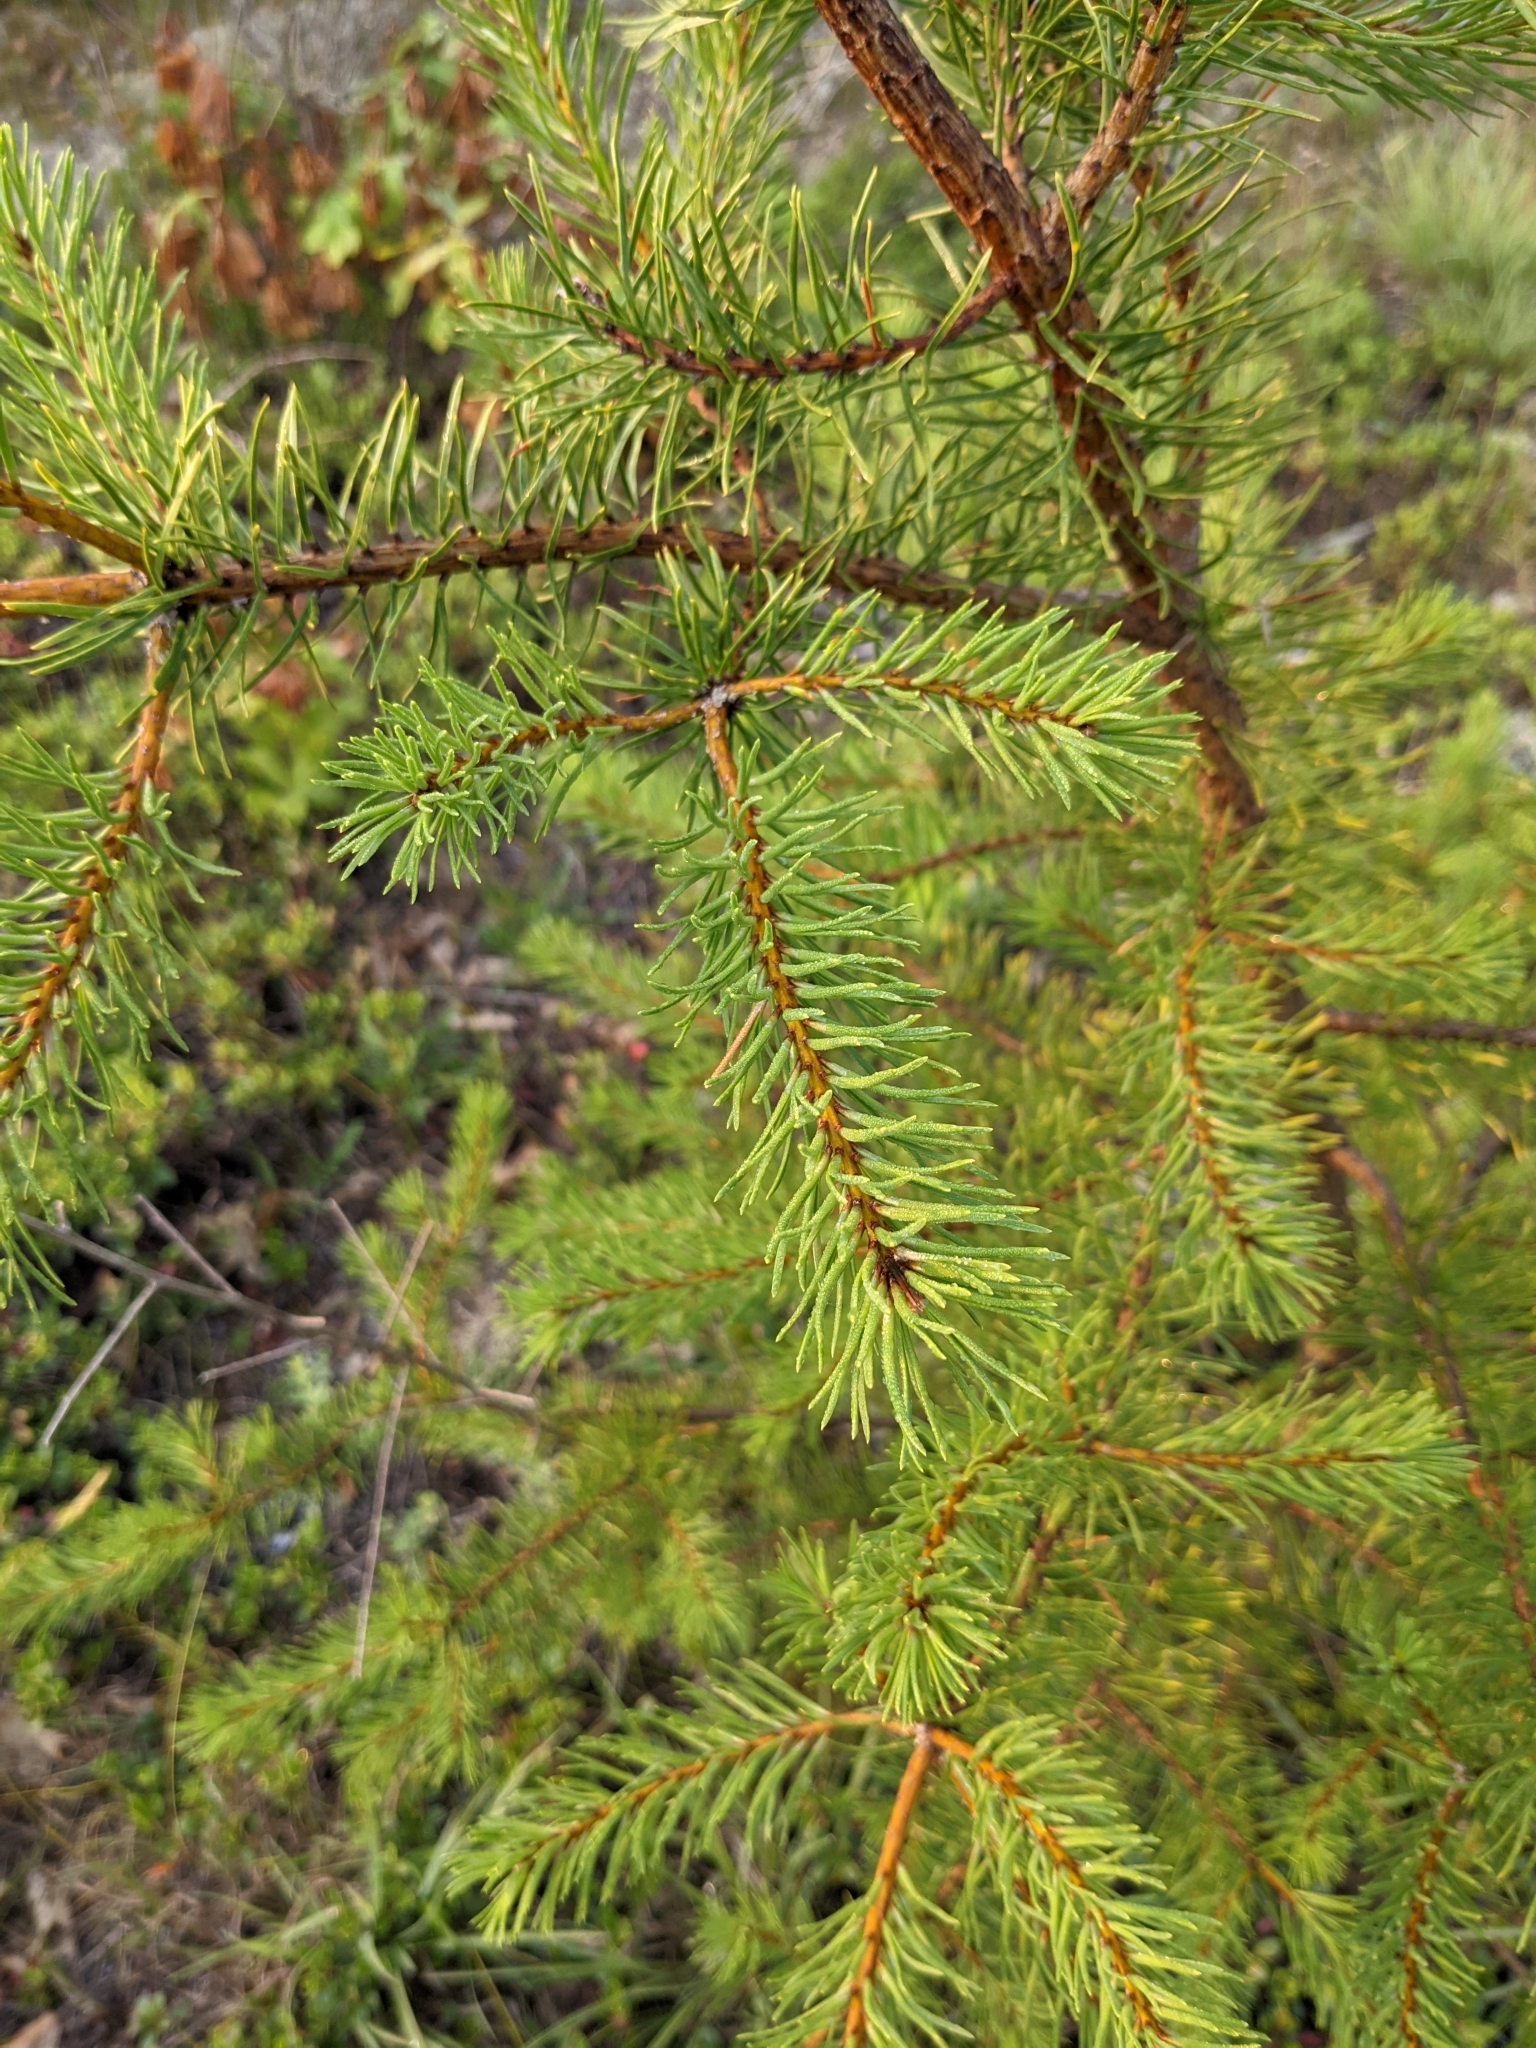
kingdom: Plantae
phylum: Tracheophyta
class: Pinopsida
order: Pinales
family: Pinaceae
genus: Pinus
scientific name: Pinus banksiana
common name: Jack pine
